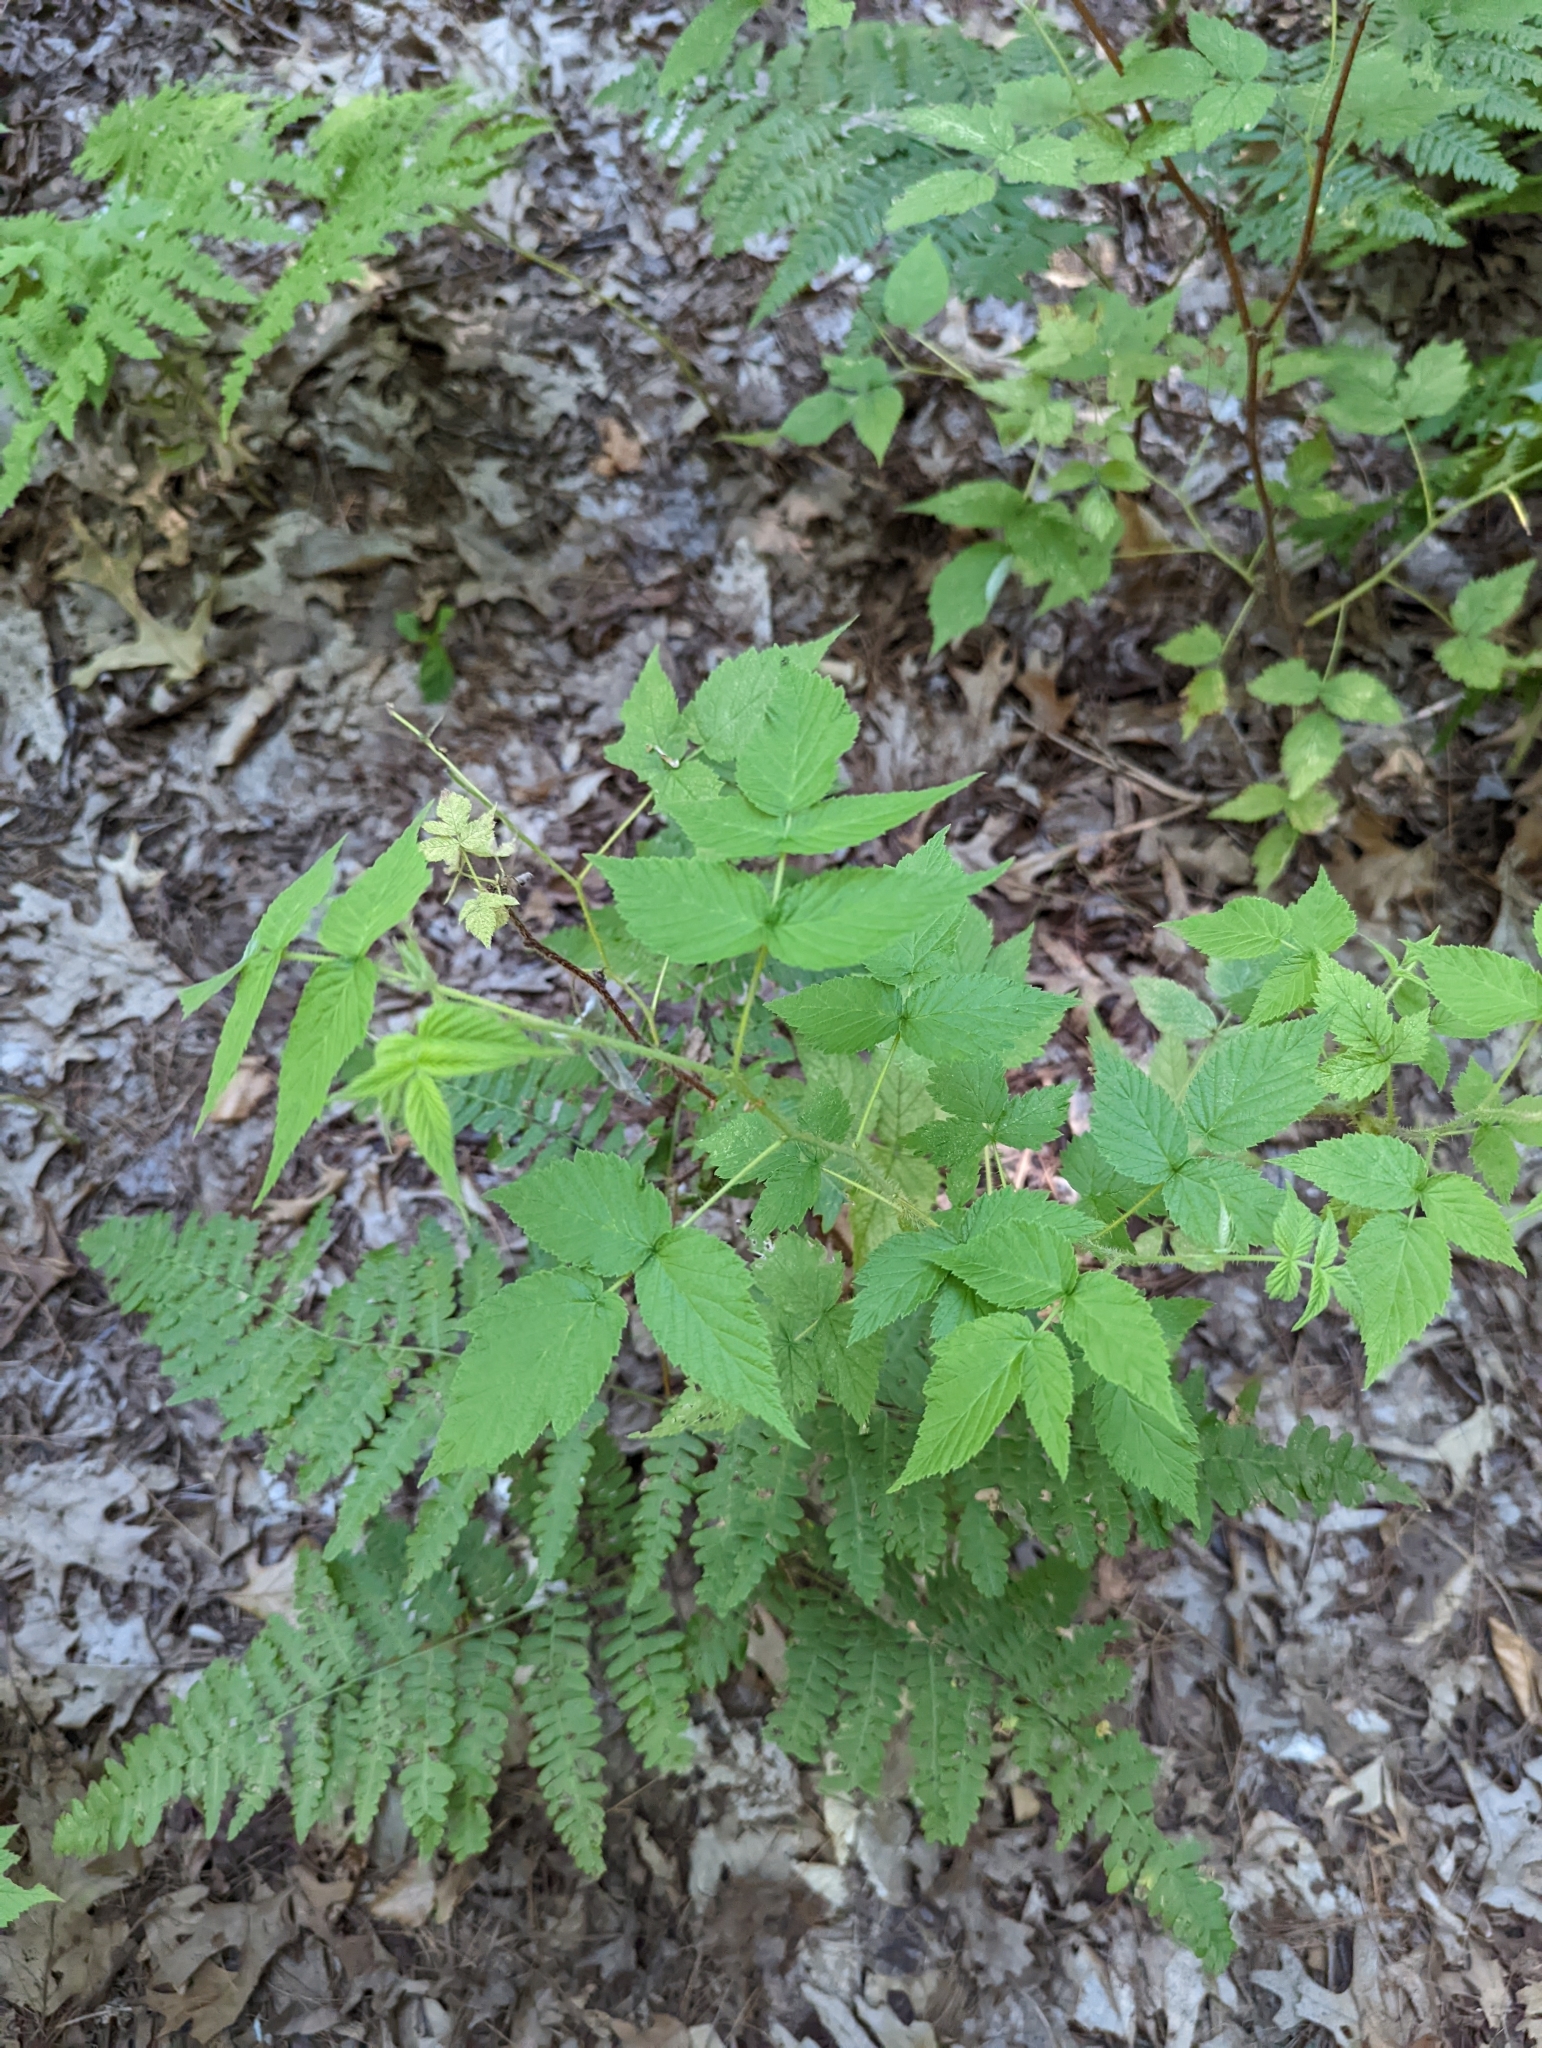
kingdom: Plantae
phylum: Tracheophyta
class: Magnoliopsida
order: Rosales
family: Rosaceae
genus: Rubus
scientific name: Rubus idaeus
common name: Raspberry
